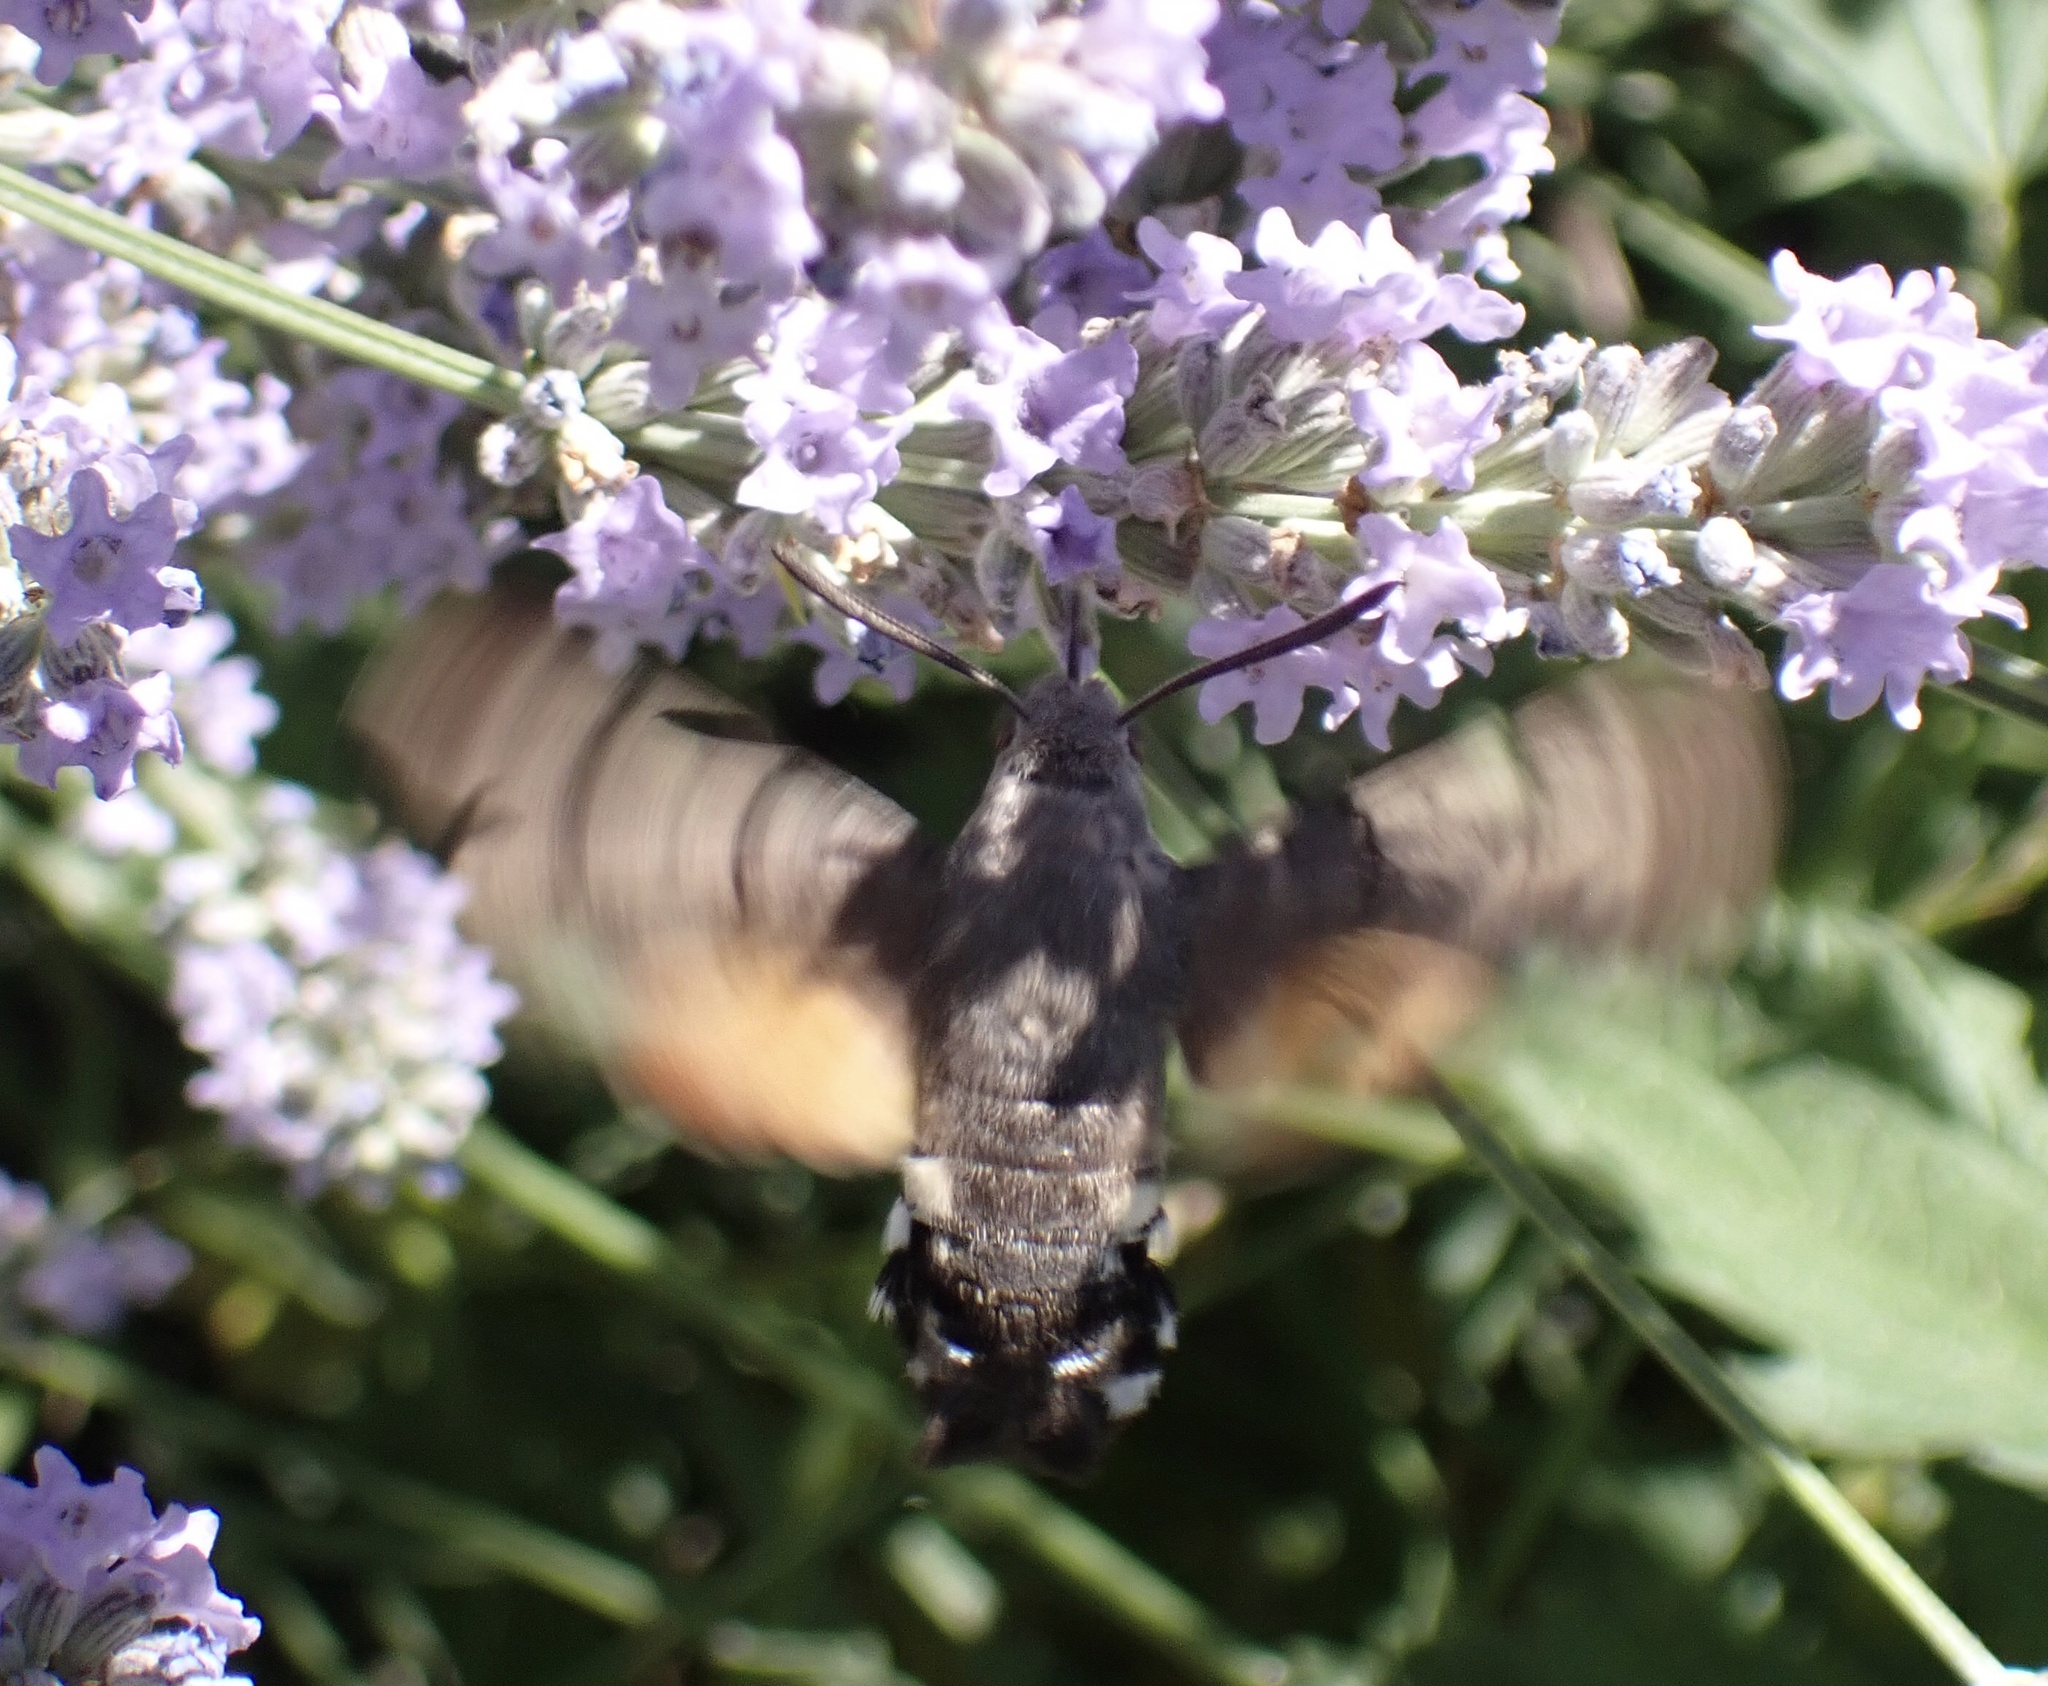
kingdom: Animalia
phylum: Arthropoda
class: Insecta
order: Lepidoptera
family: Sphingidae
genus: Macroglossum
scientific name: Macroglossum stellatarum
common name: Humming-bird hawk-moth
